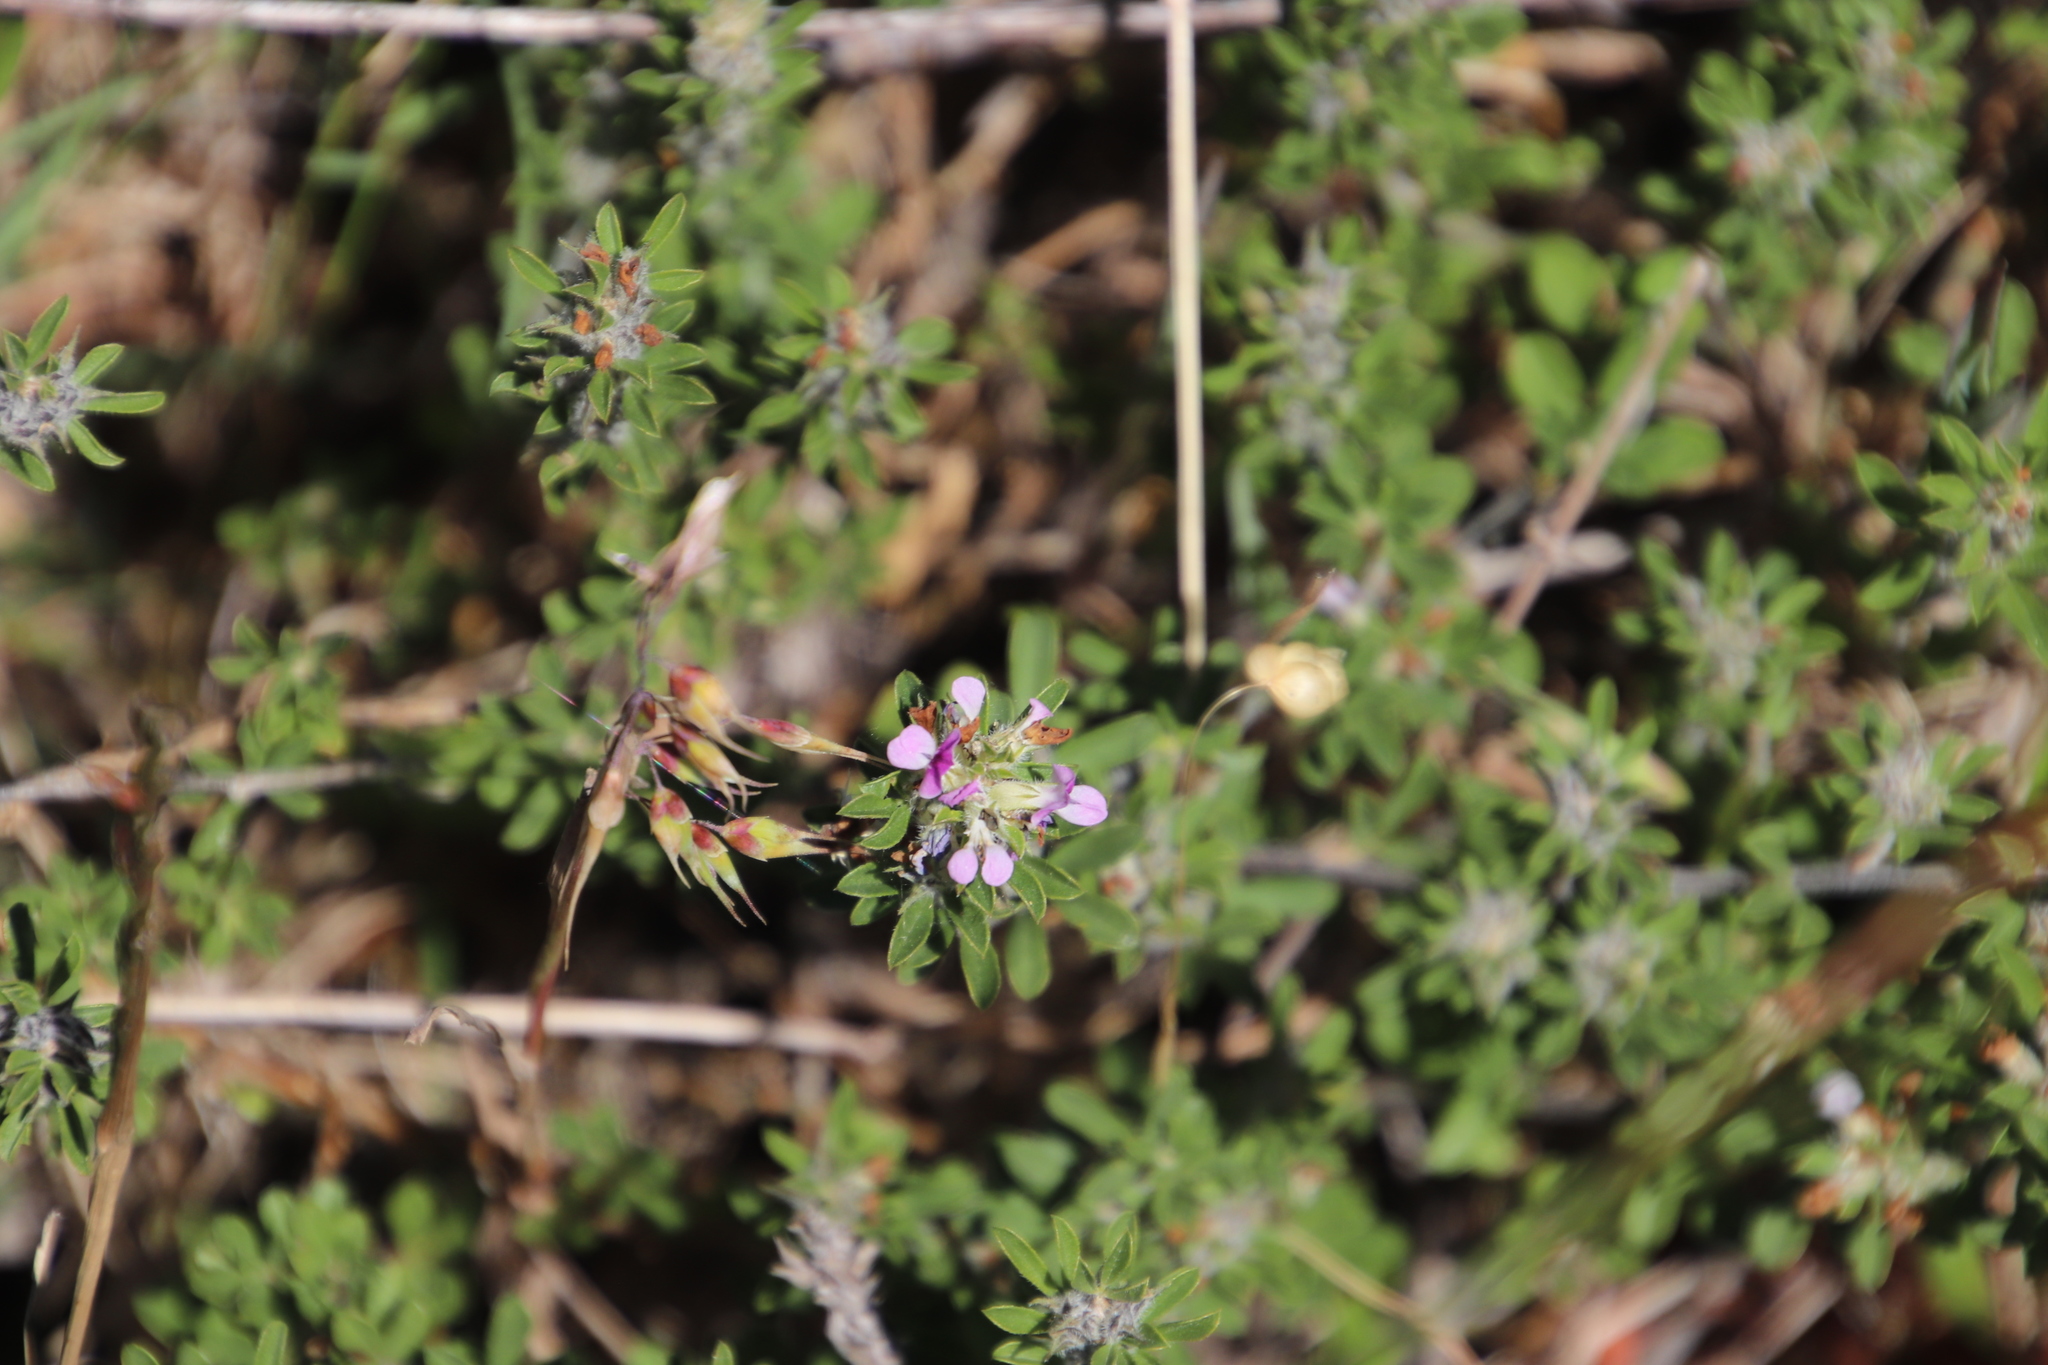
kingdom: Plantae
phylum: Tracheophyta
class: Magnoliopsida
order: Fabales
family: Fabaceae
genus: Psoralea
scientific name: Psoralea
